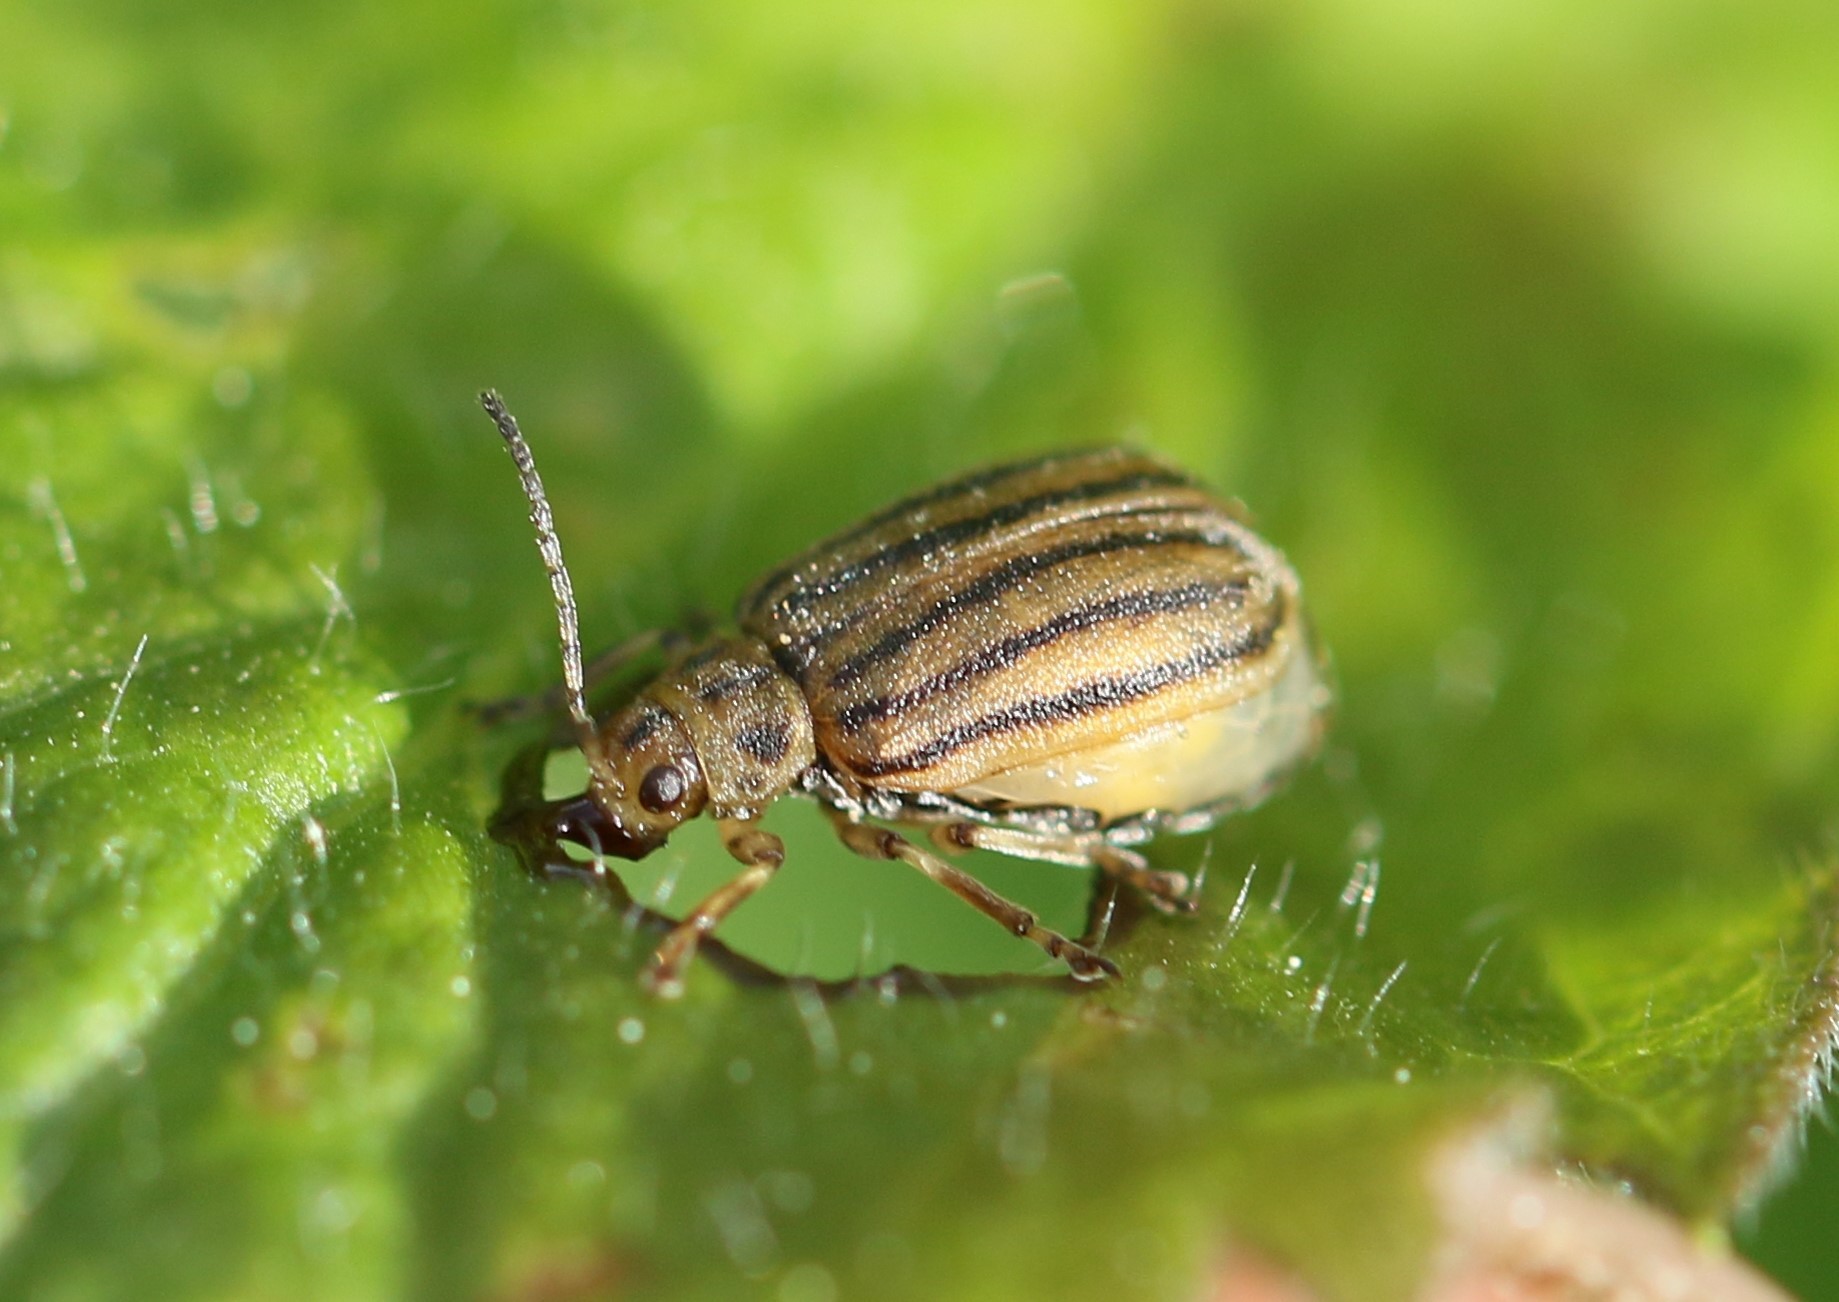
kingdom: Animalia
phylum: Arthropoda
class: Insecta
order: Coleoptera
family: Chrysomelidae
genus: Ophraella
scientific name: Ophraella conferta
